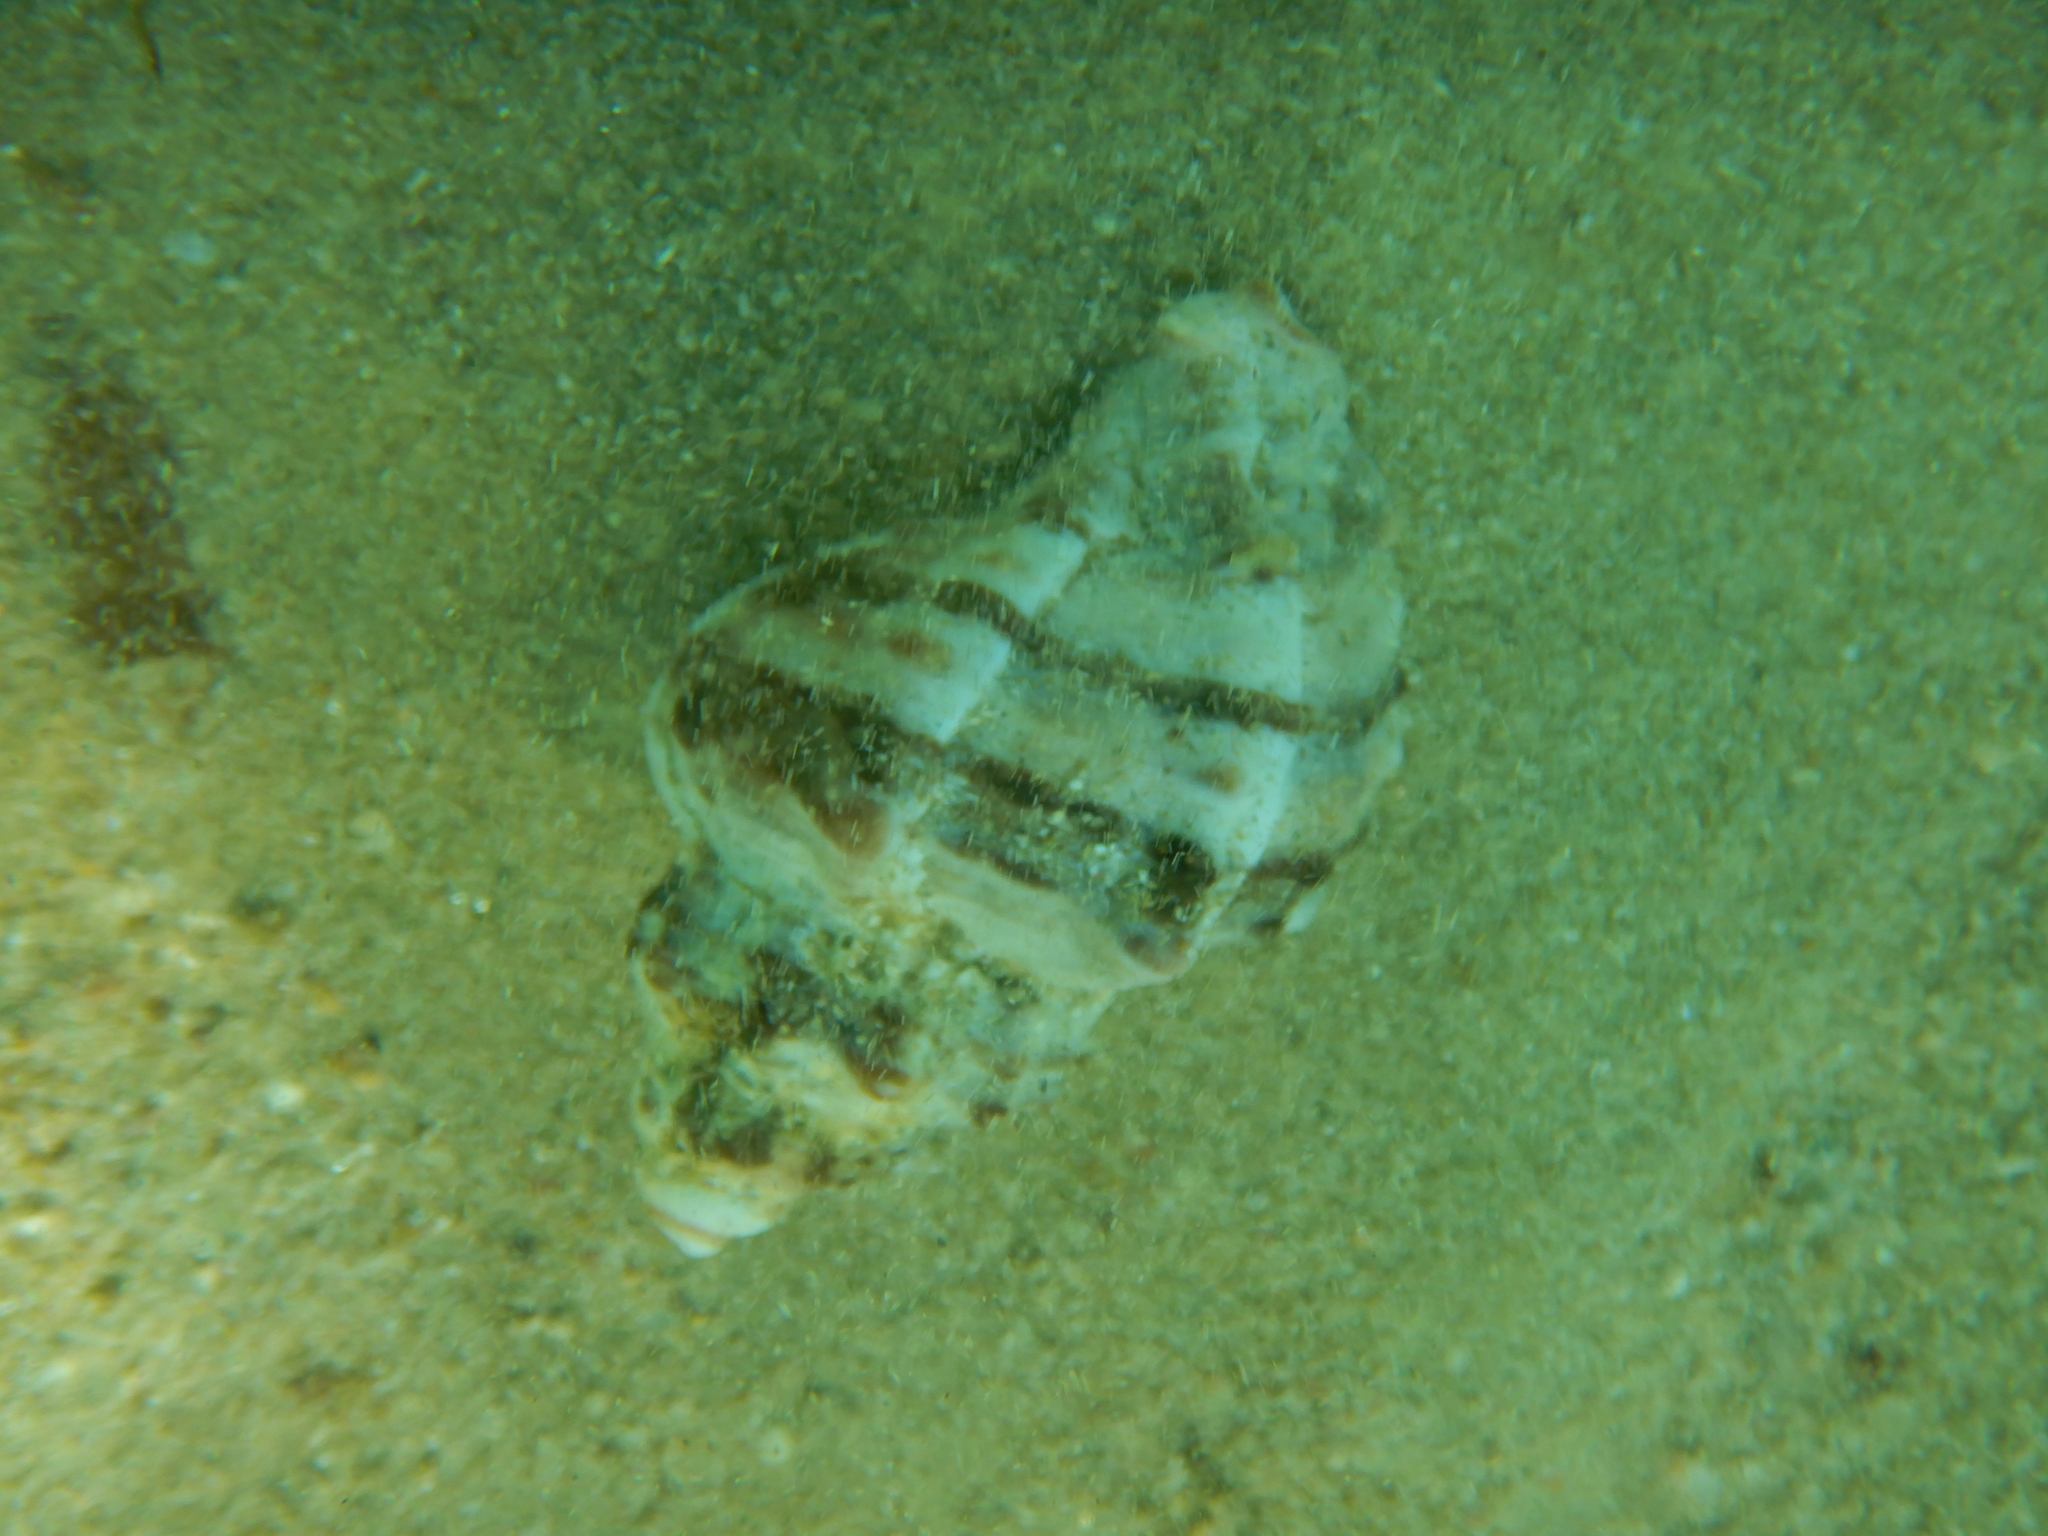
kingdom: Animalia
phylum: Mollusca
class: Gastropoda
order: Neogastropoda
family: Muricidae
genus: Hexaplex
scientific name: Hexaplex trunculus
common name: Banded dye-murex
